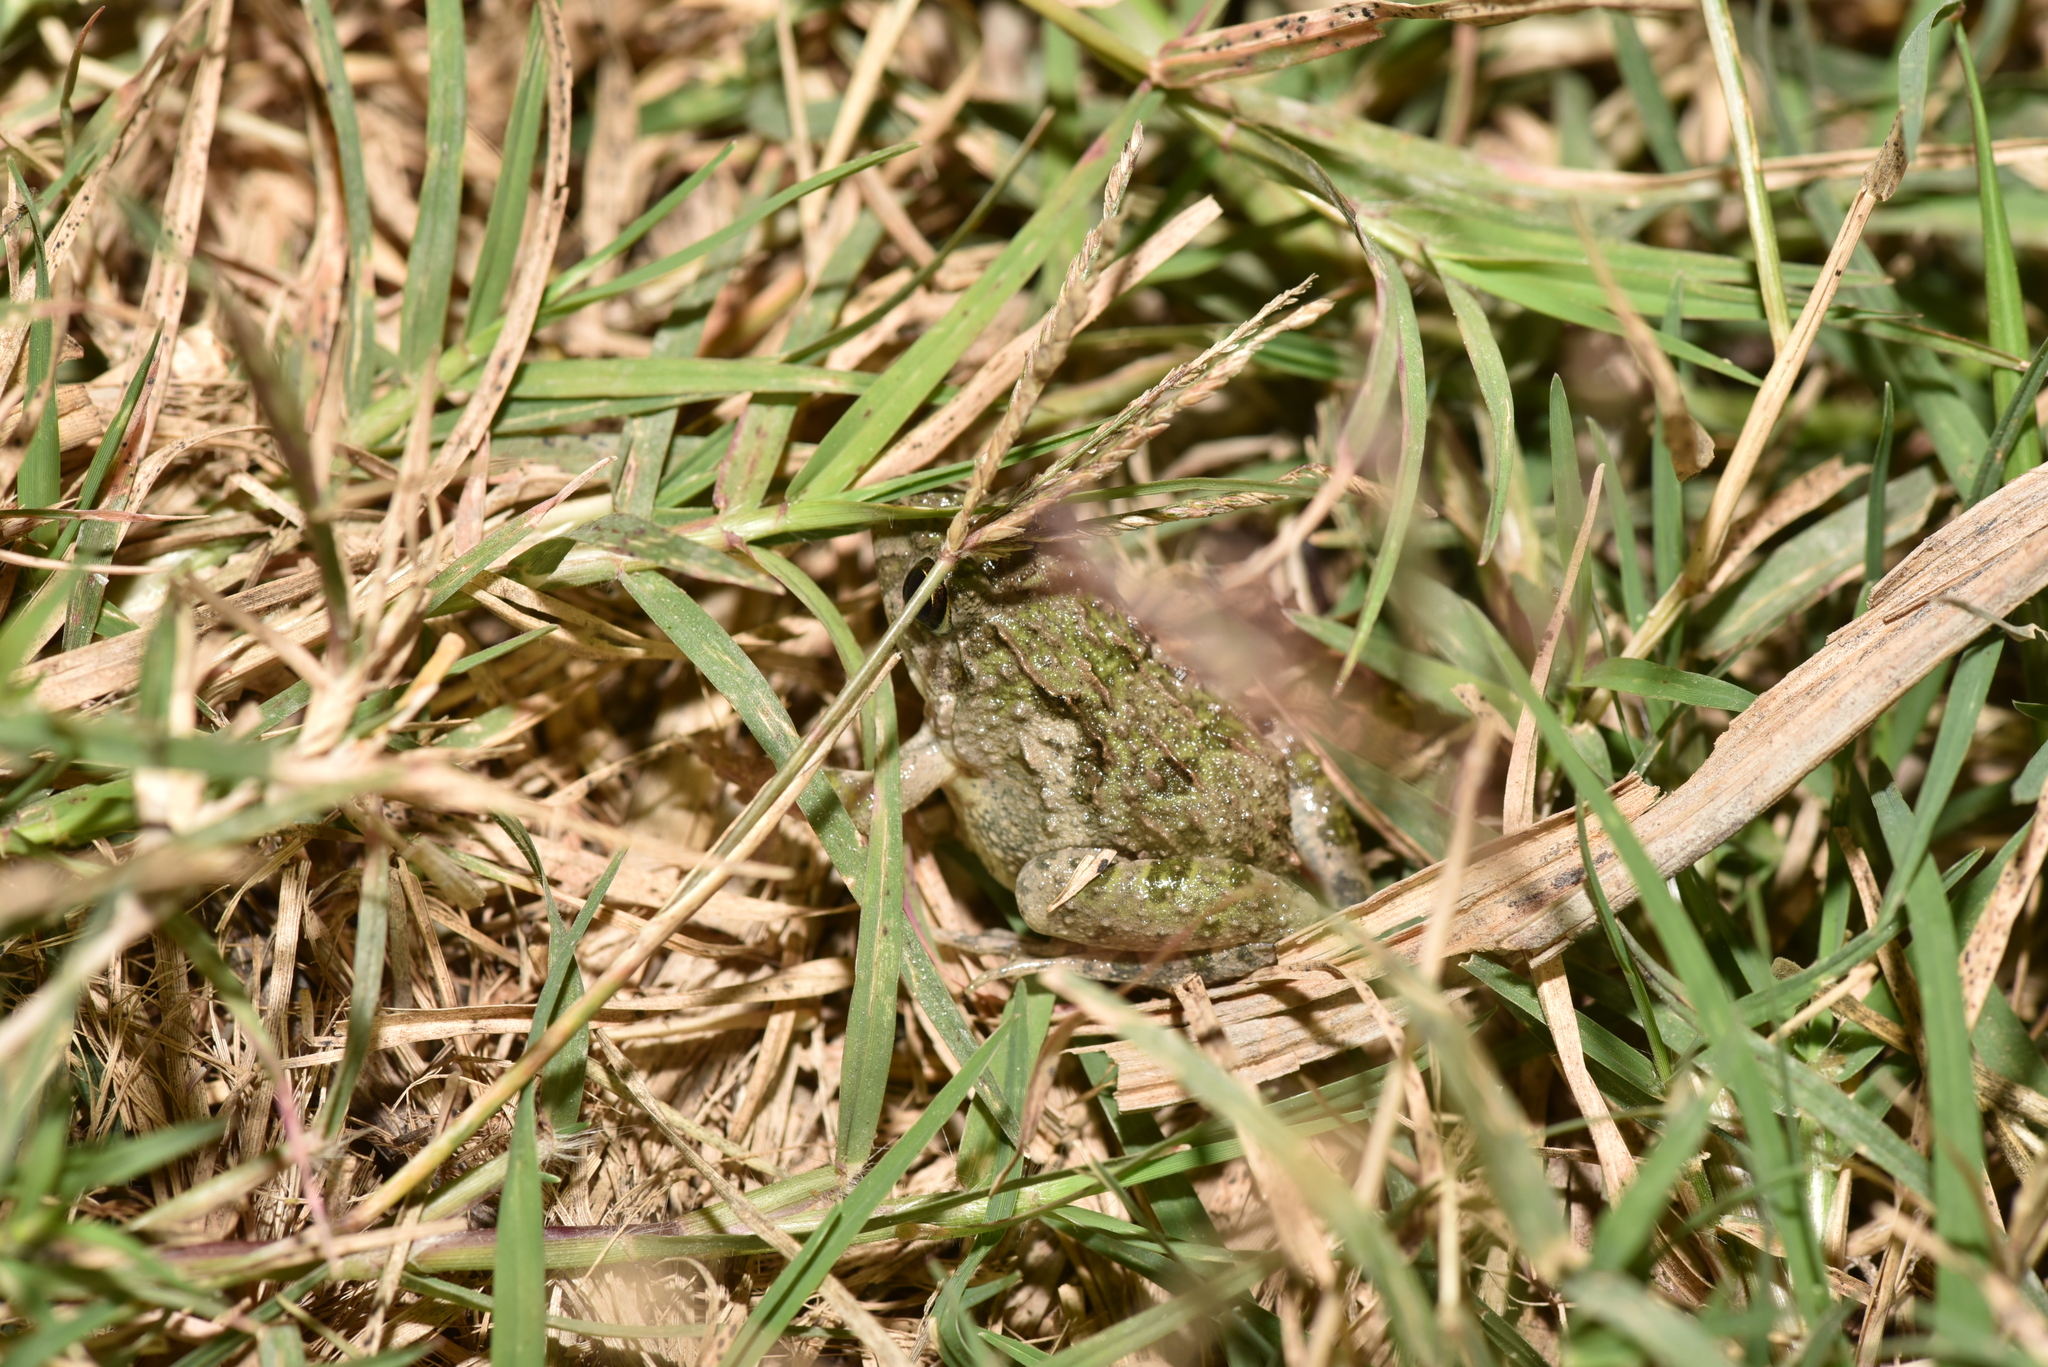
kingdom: Animalia
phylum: Chordata
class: Amphibia
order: Anura
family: Dicroglossidae
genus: Fejervarya
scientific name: Fejervarya limnocharis
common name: Asian grass frog/common pond frog/field frog/grass frog/indian rice frog
